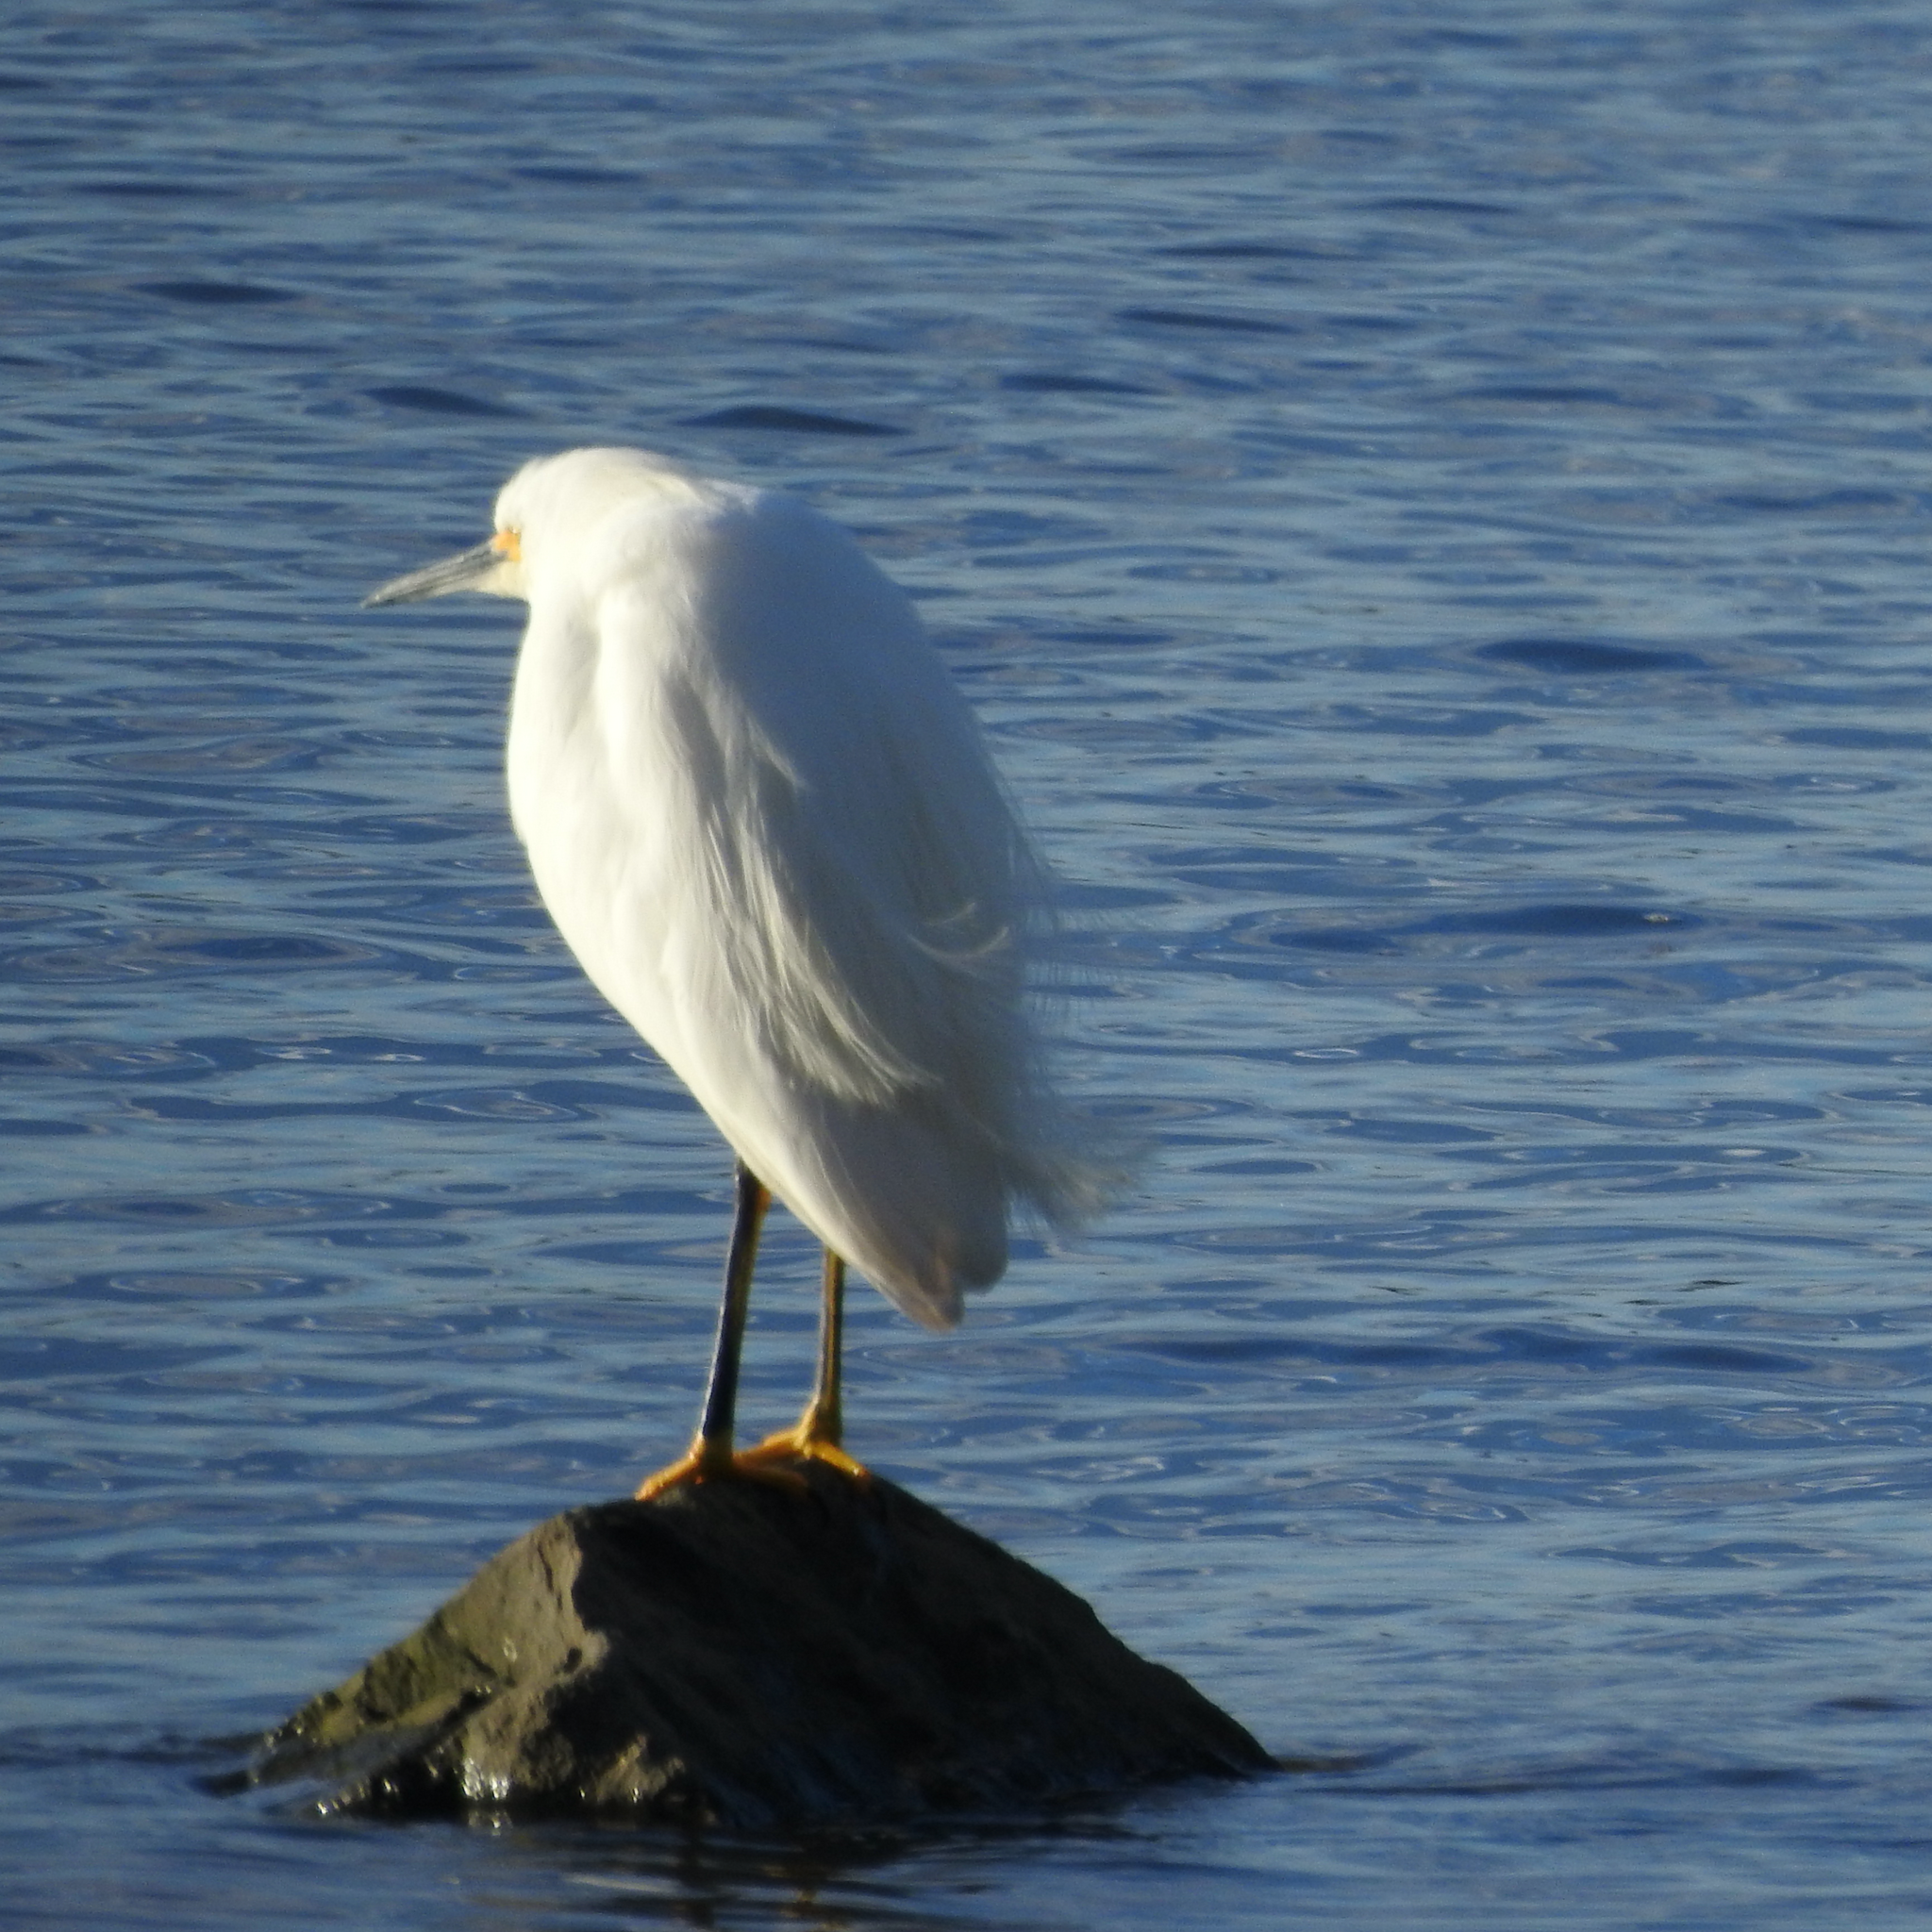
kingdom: Animalia
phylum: Chordata
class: Aves
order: Pelecaniformes
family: Ardeidae
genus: Egretta
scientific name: Egretta thula
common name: Snowy egret
